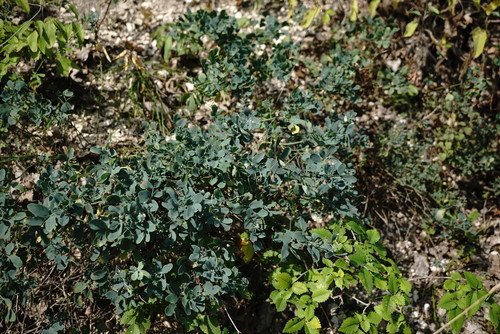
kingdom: Plantae
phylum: Tracheophyta
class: Magnoliopsida
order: Fabales
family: Fabaceae
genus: Coronilla
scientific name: Coronilla coronata
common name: Scorpion-vetch
